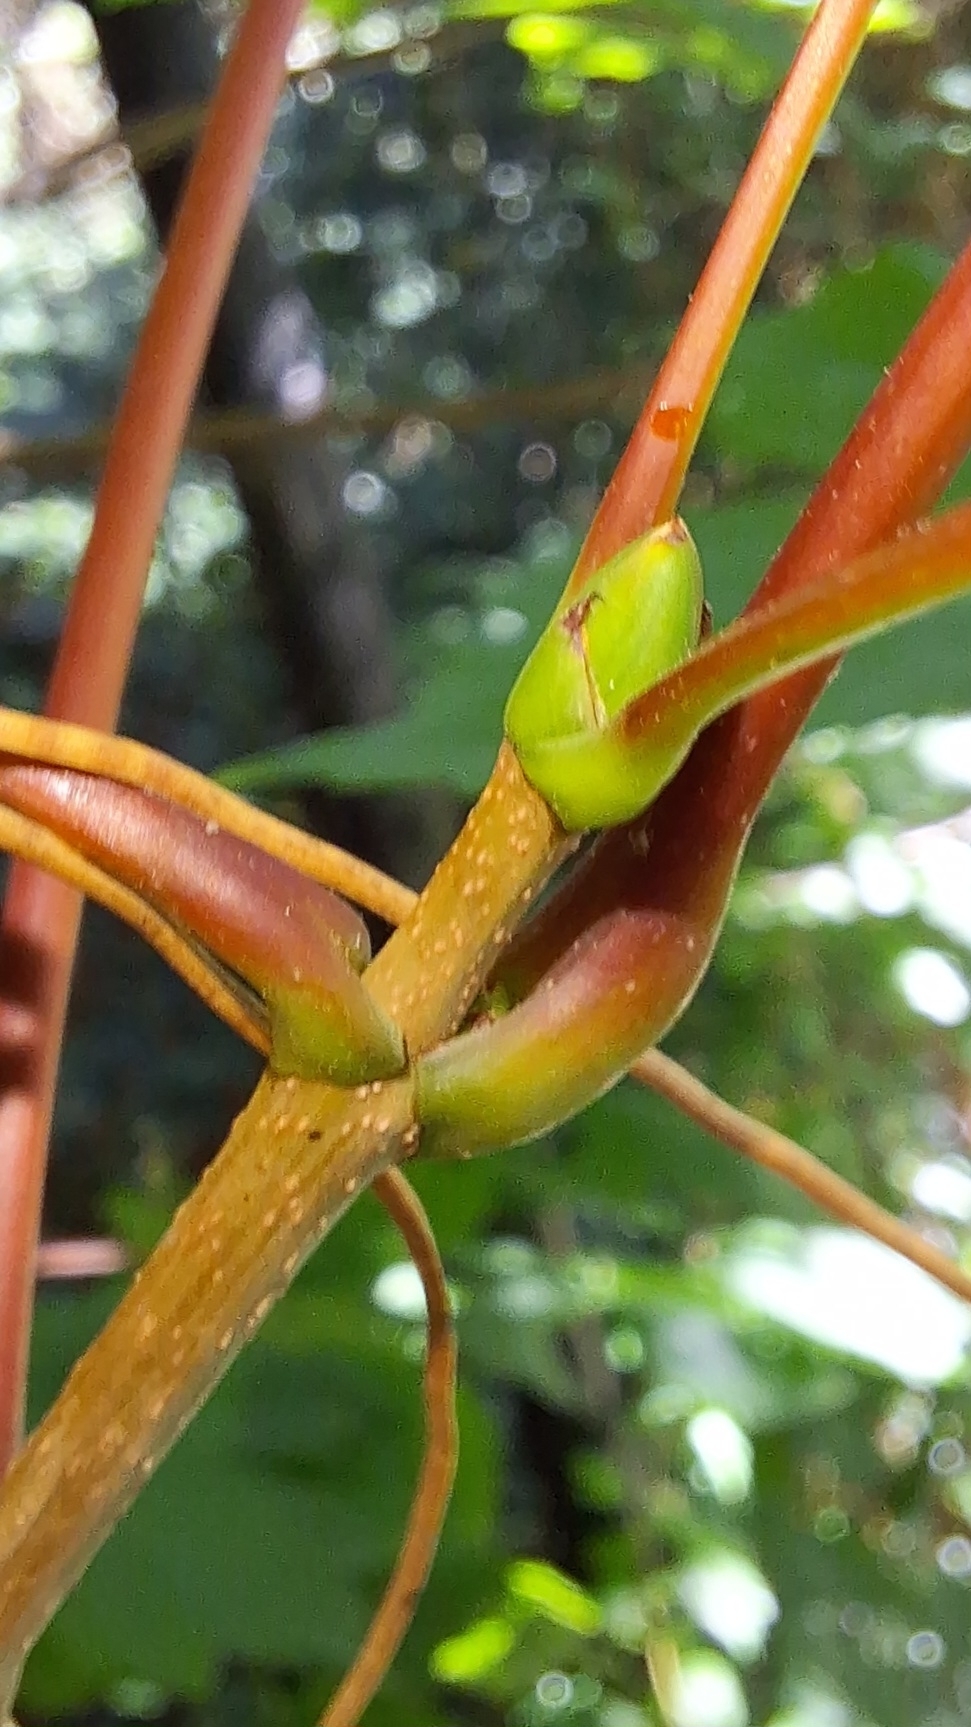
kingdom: Plantae
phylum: Tracheophyta
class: Magnoliopsida
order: Sapindales
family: Sapindaceae
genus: Acer
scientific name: Acer pseudoplatanus
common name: Sycamore
